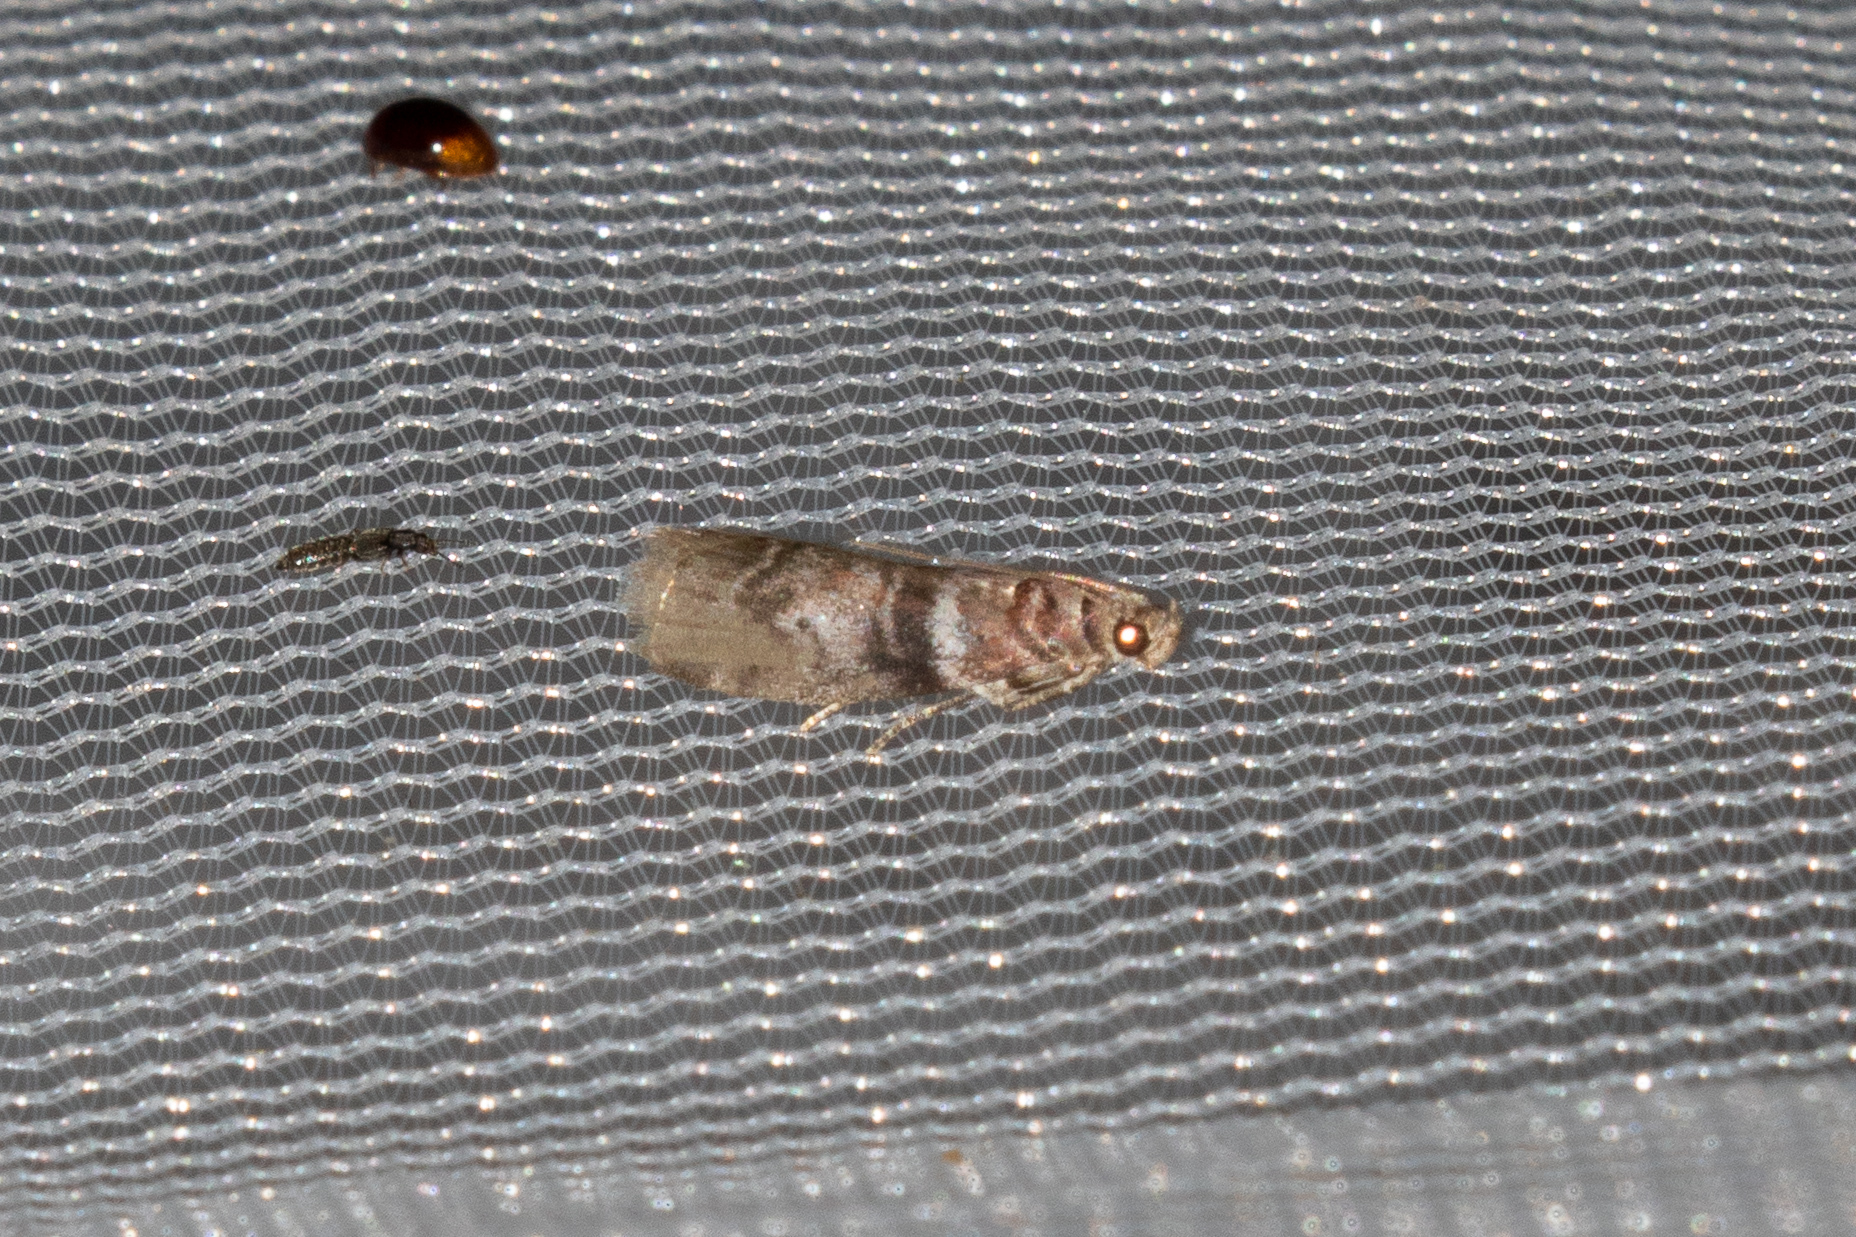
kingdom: Animalia
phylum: Arthropoda
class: Insecta
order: Lepidoptera
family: Pyralidae
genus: Sciota
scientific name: Sciota uvinella
